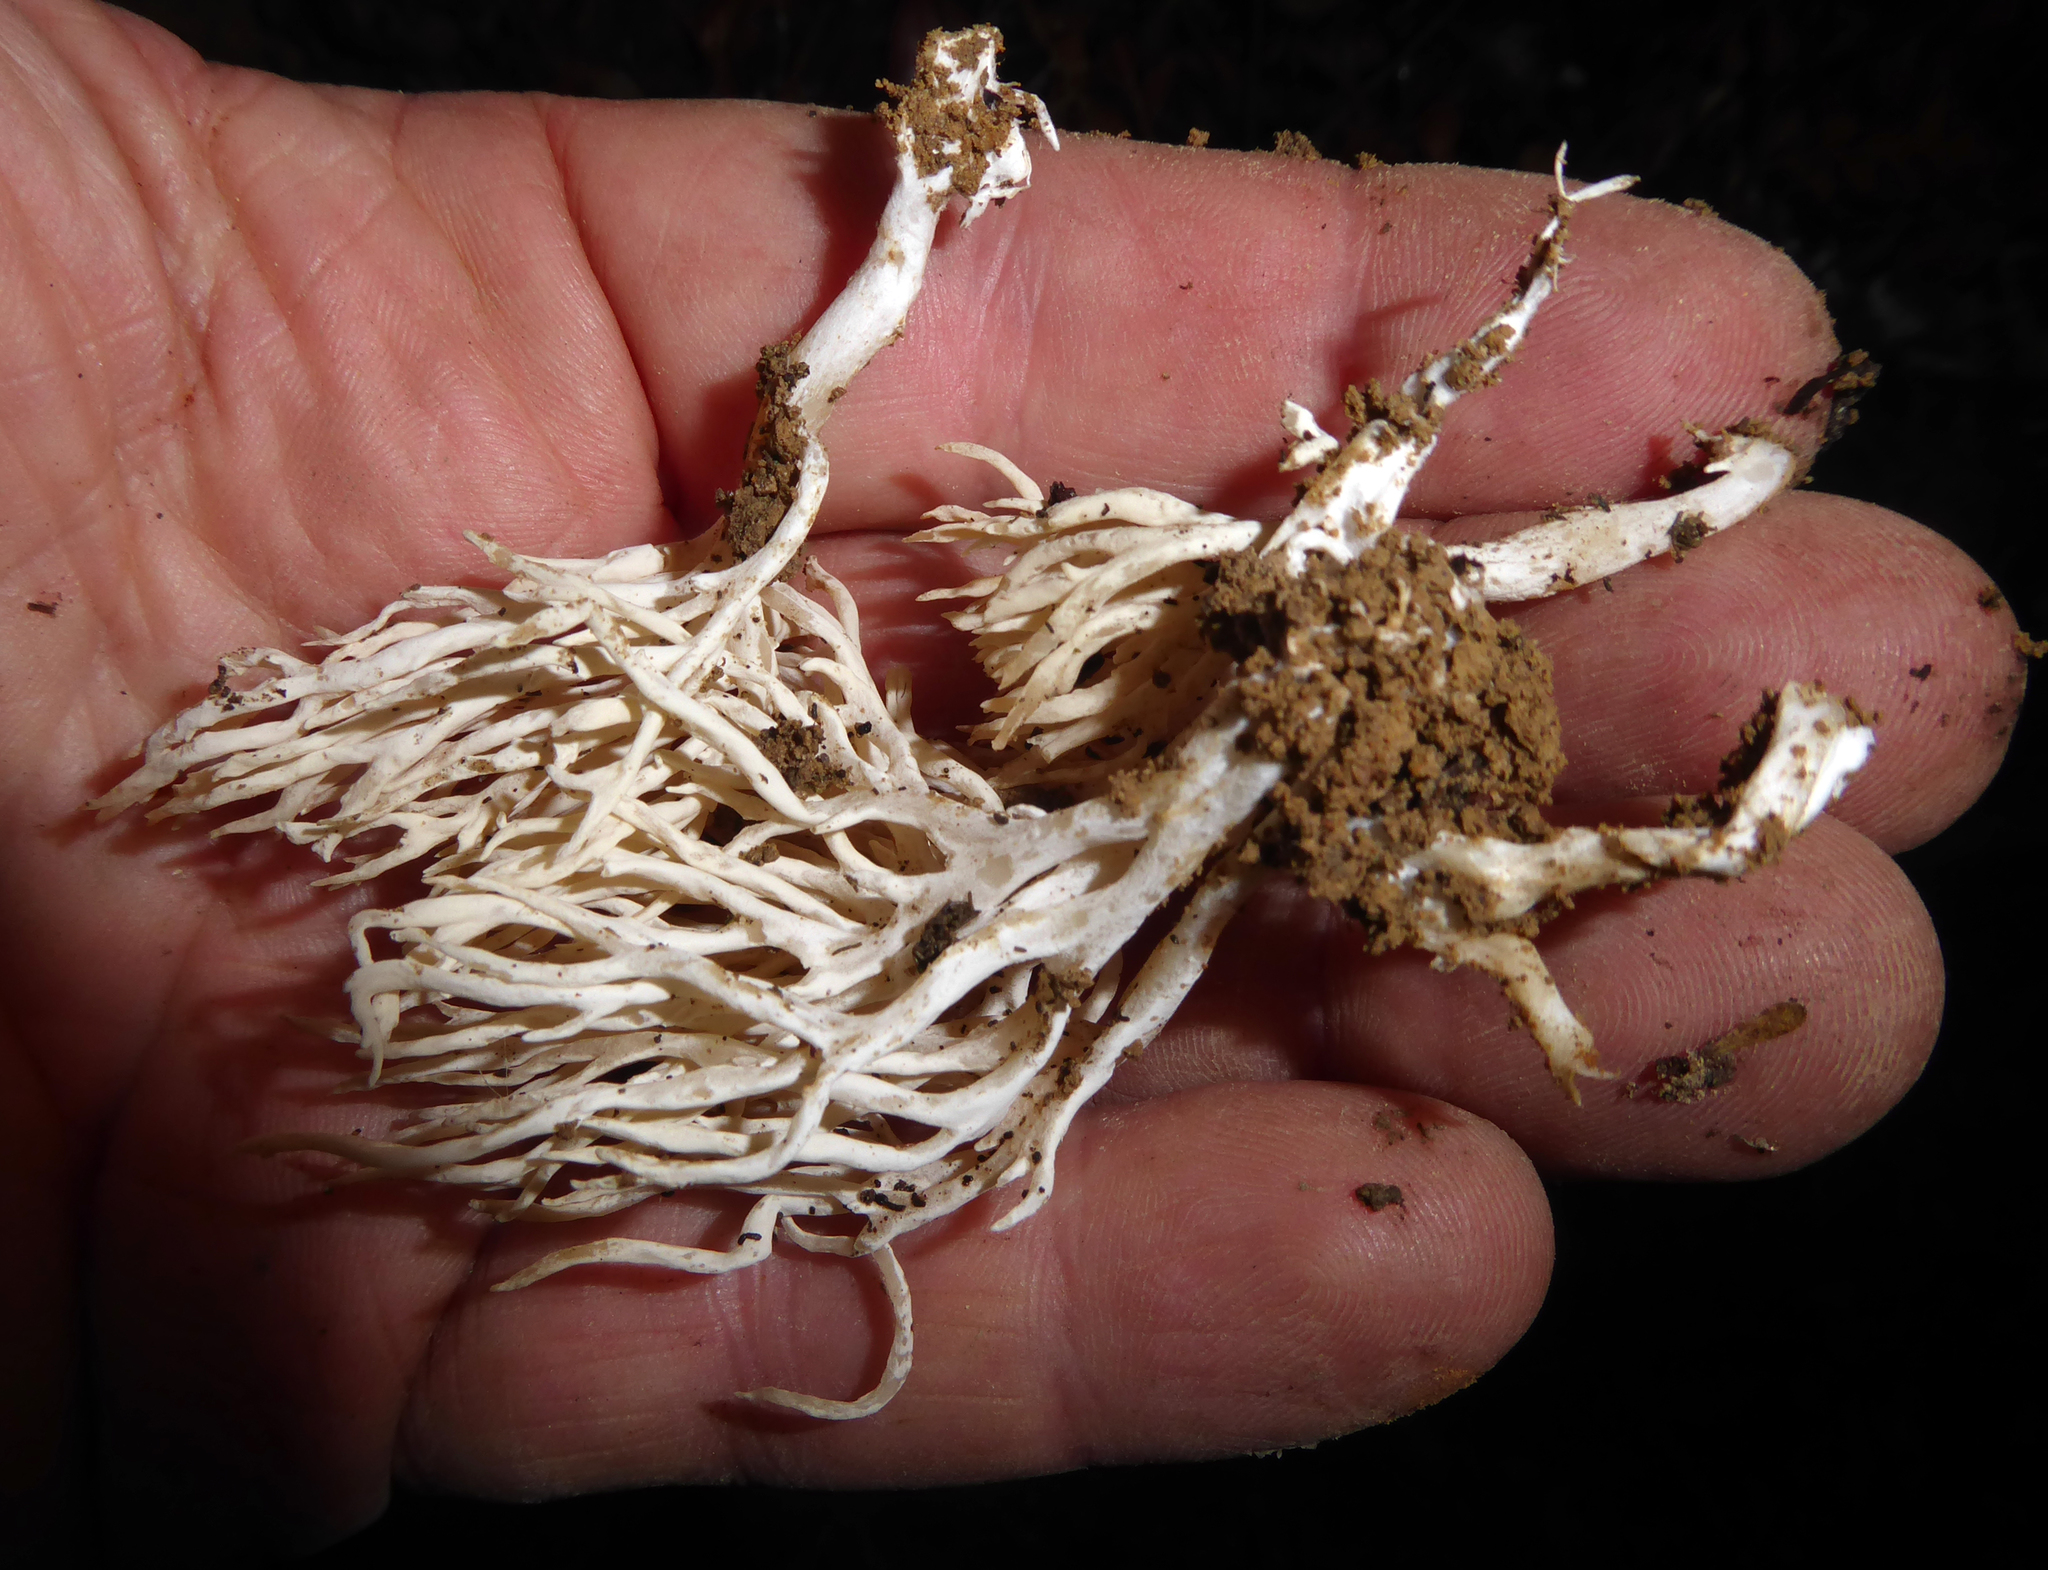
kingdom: Fungi
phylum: Basidiomycota
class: Agaricomycetes
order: Trechisporales
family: Sistotremataceae
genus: Trechispora
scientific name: Trechispora pallescens
